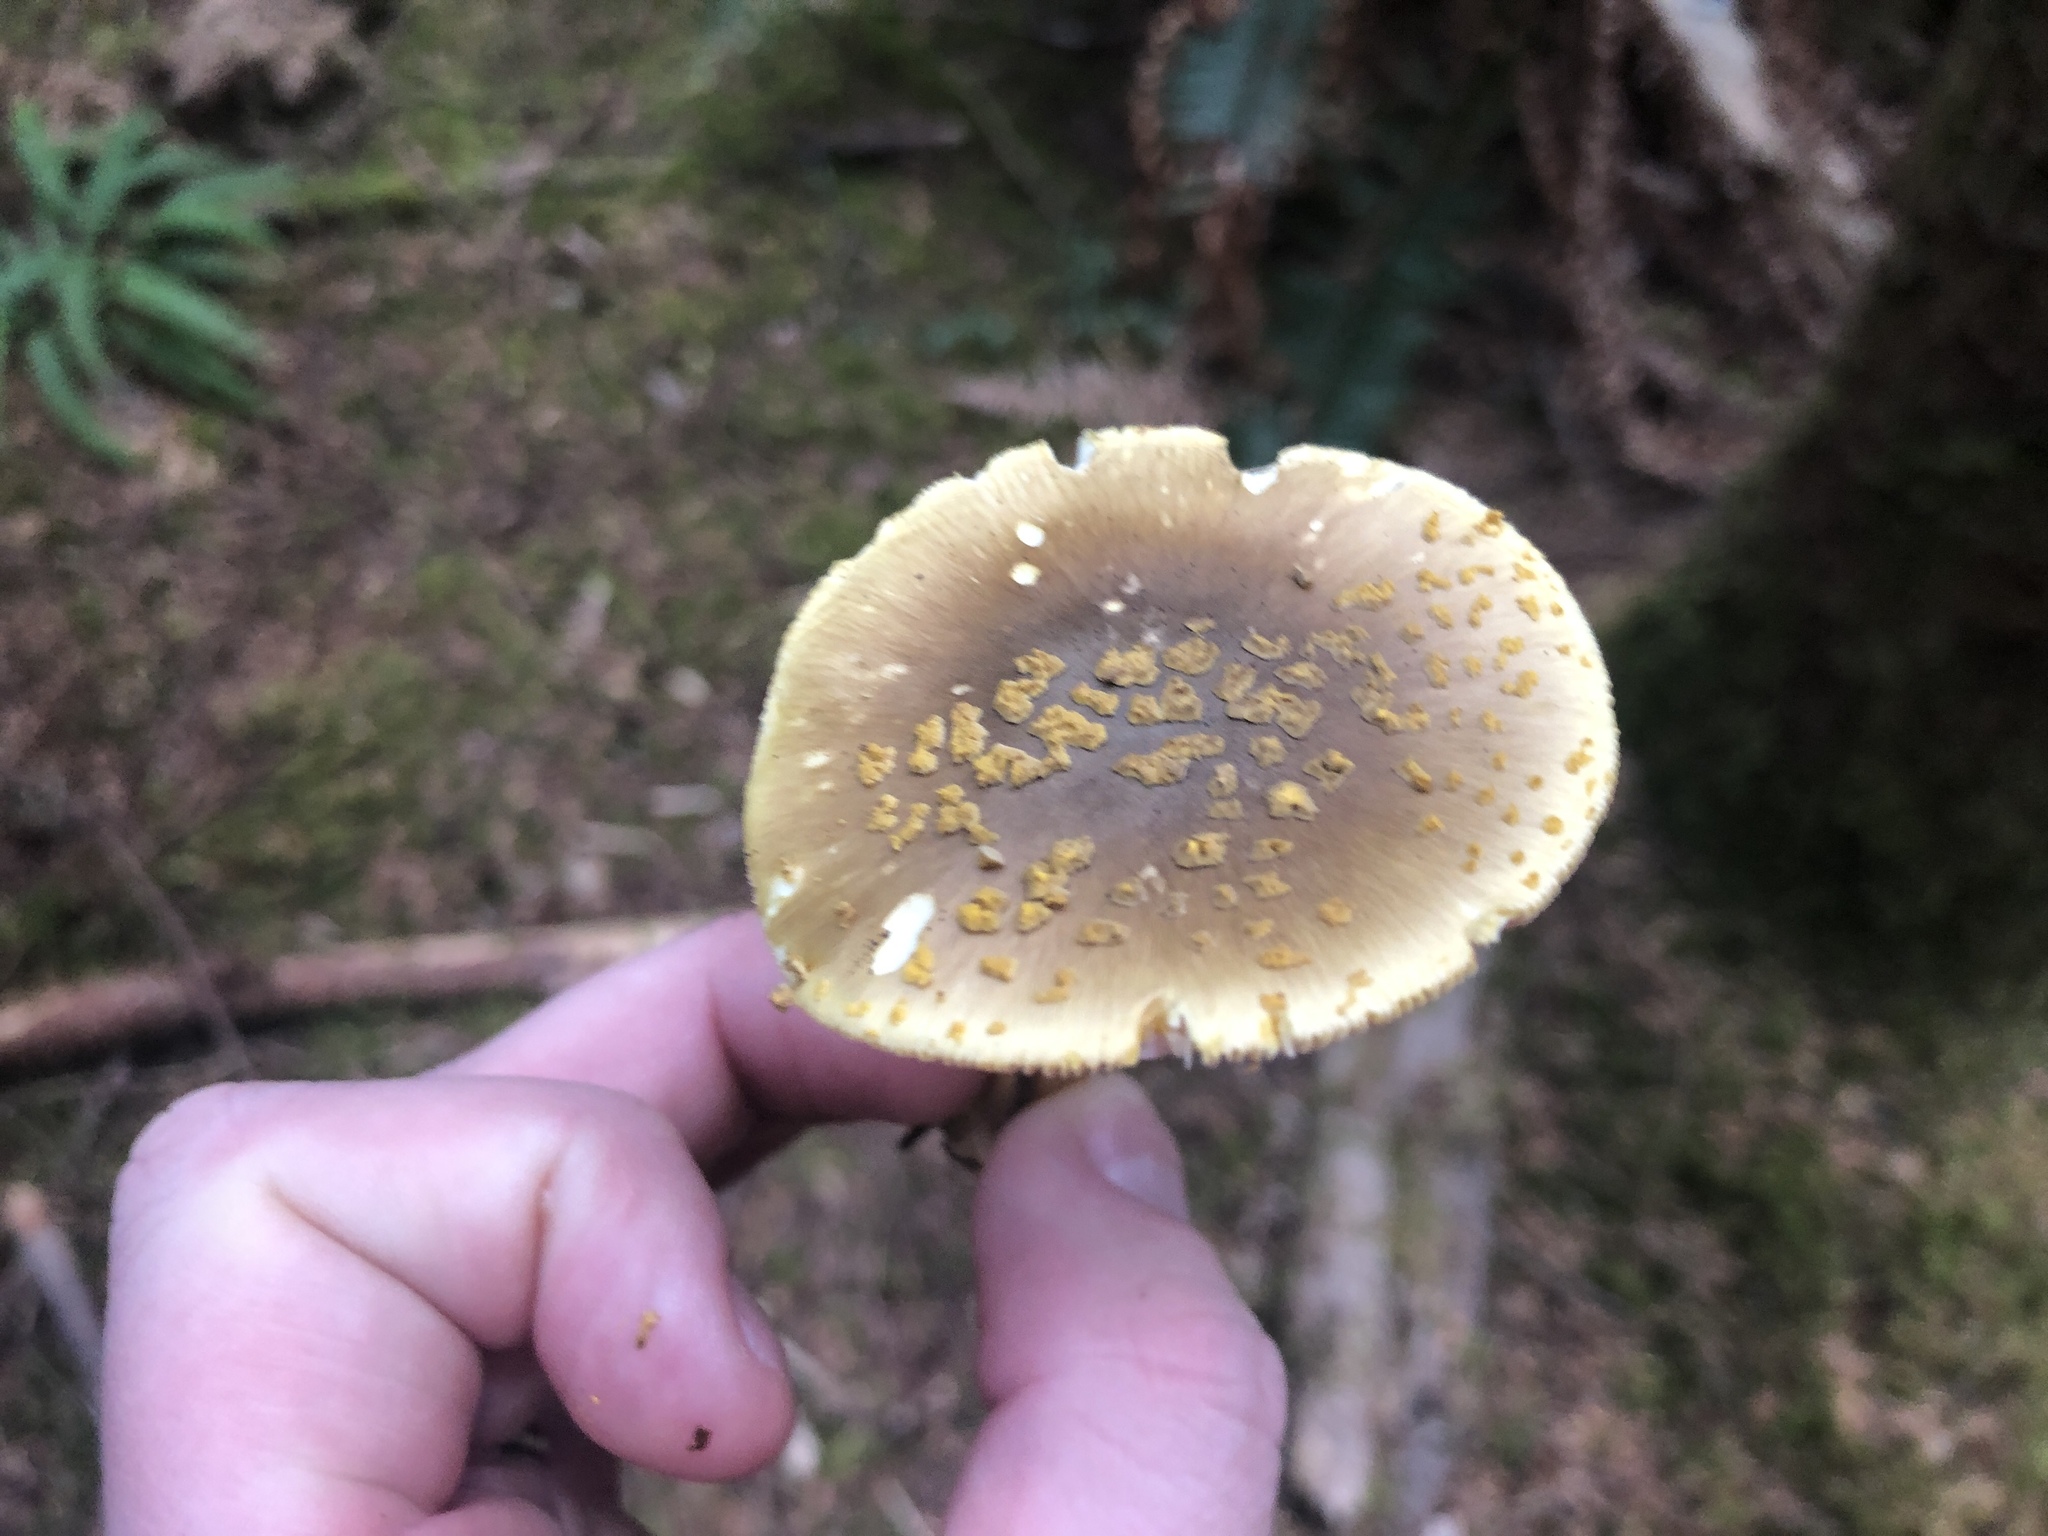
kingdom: Fungi
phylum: Basidiomycota
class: Agaricomycetes
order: Agaricales
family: Amanitaceae
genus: Amanita
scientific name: Amanita augusta
